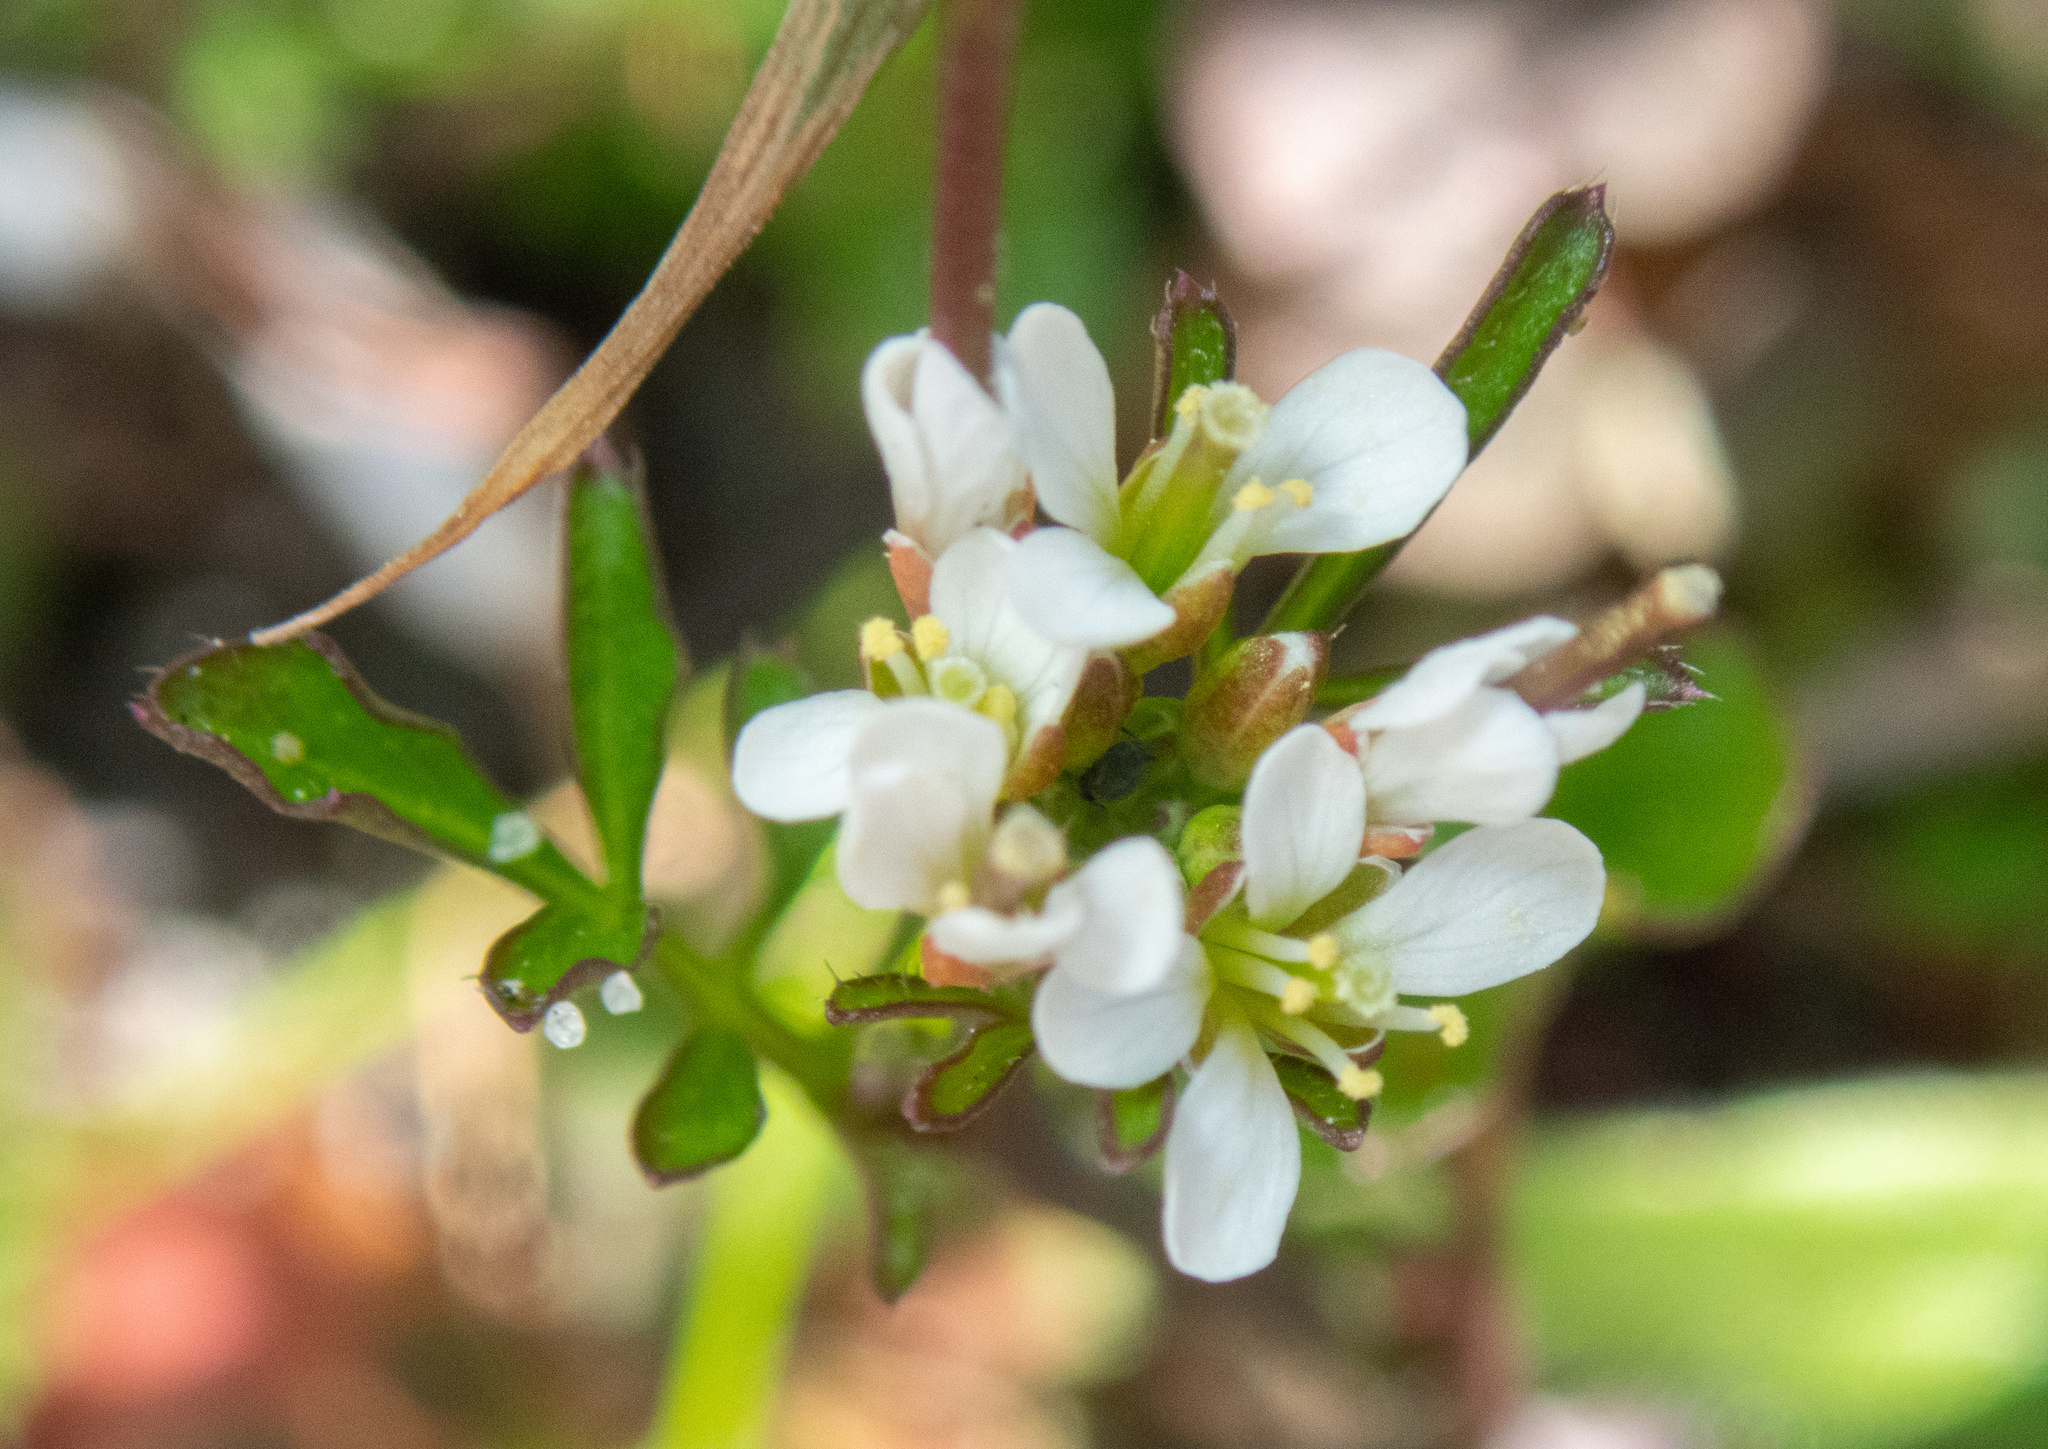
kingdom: Plantae
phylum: Tracheophyta
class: Magnoliopsida
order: Brassicales
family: Brassicaceae
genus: Cardamine
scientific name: Cardamine hirsuta
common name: Hairy bittercress
